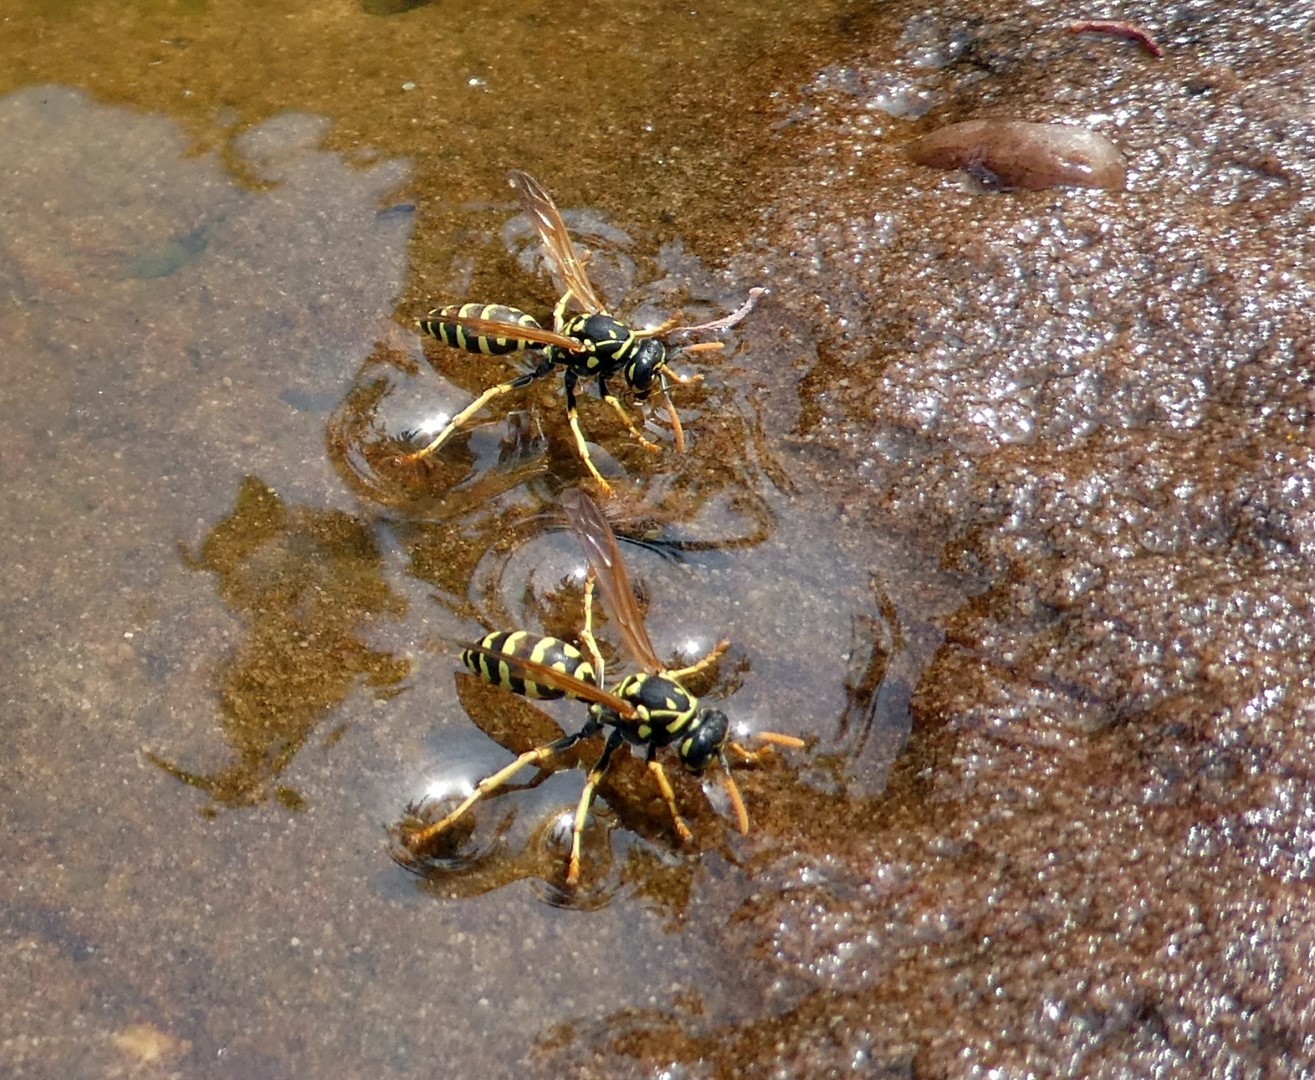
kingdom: Animalia
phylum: Arthropoda
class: Insecta
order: Hymenoptera
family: Eumenidae
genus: Polistes
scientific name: Polistes dominula
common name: Paper wasp
